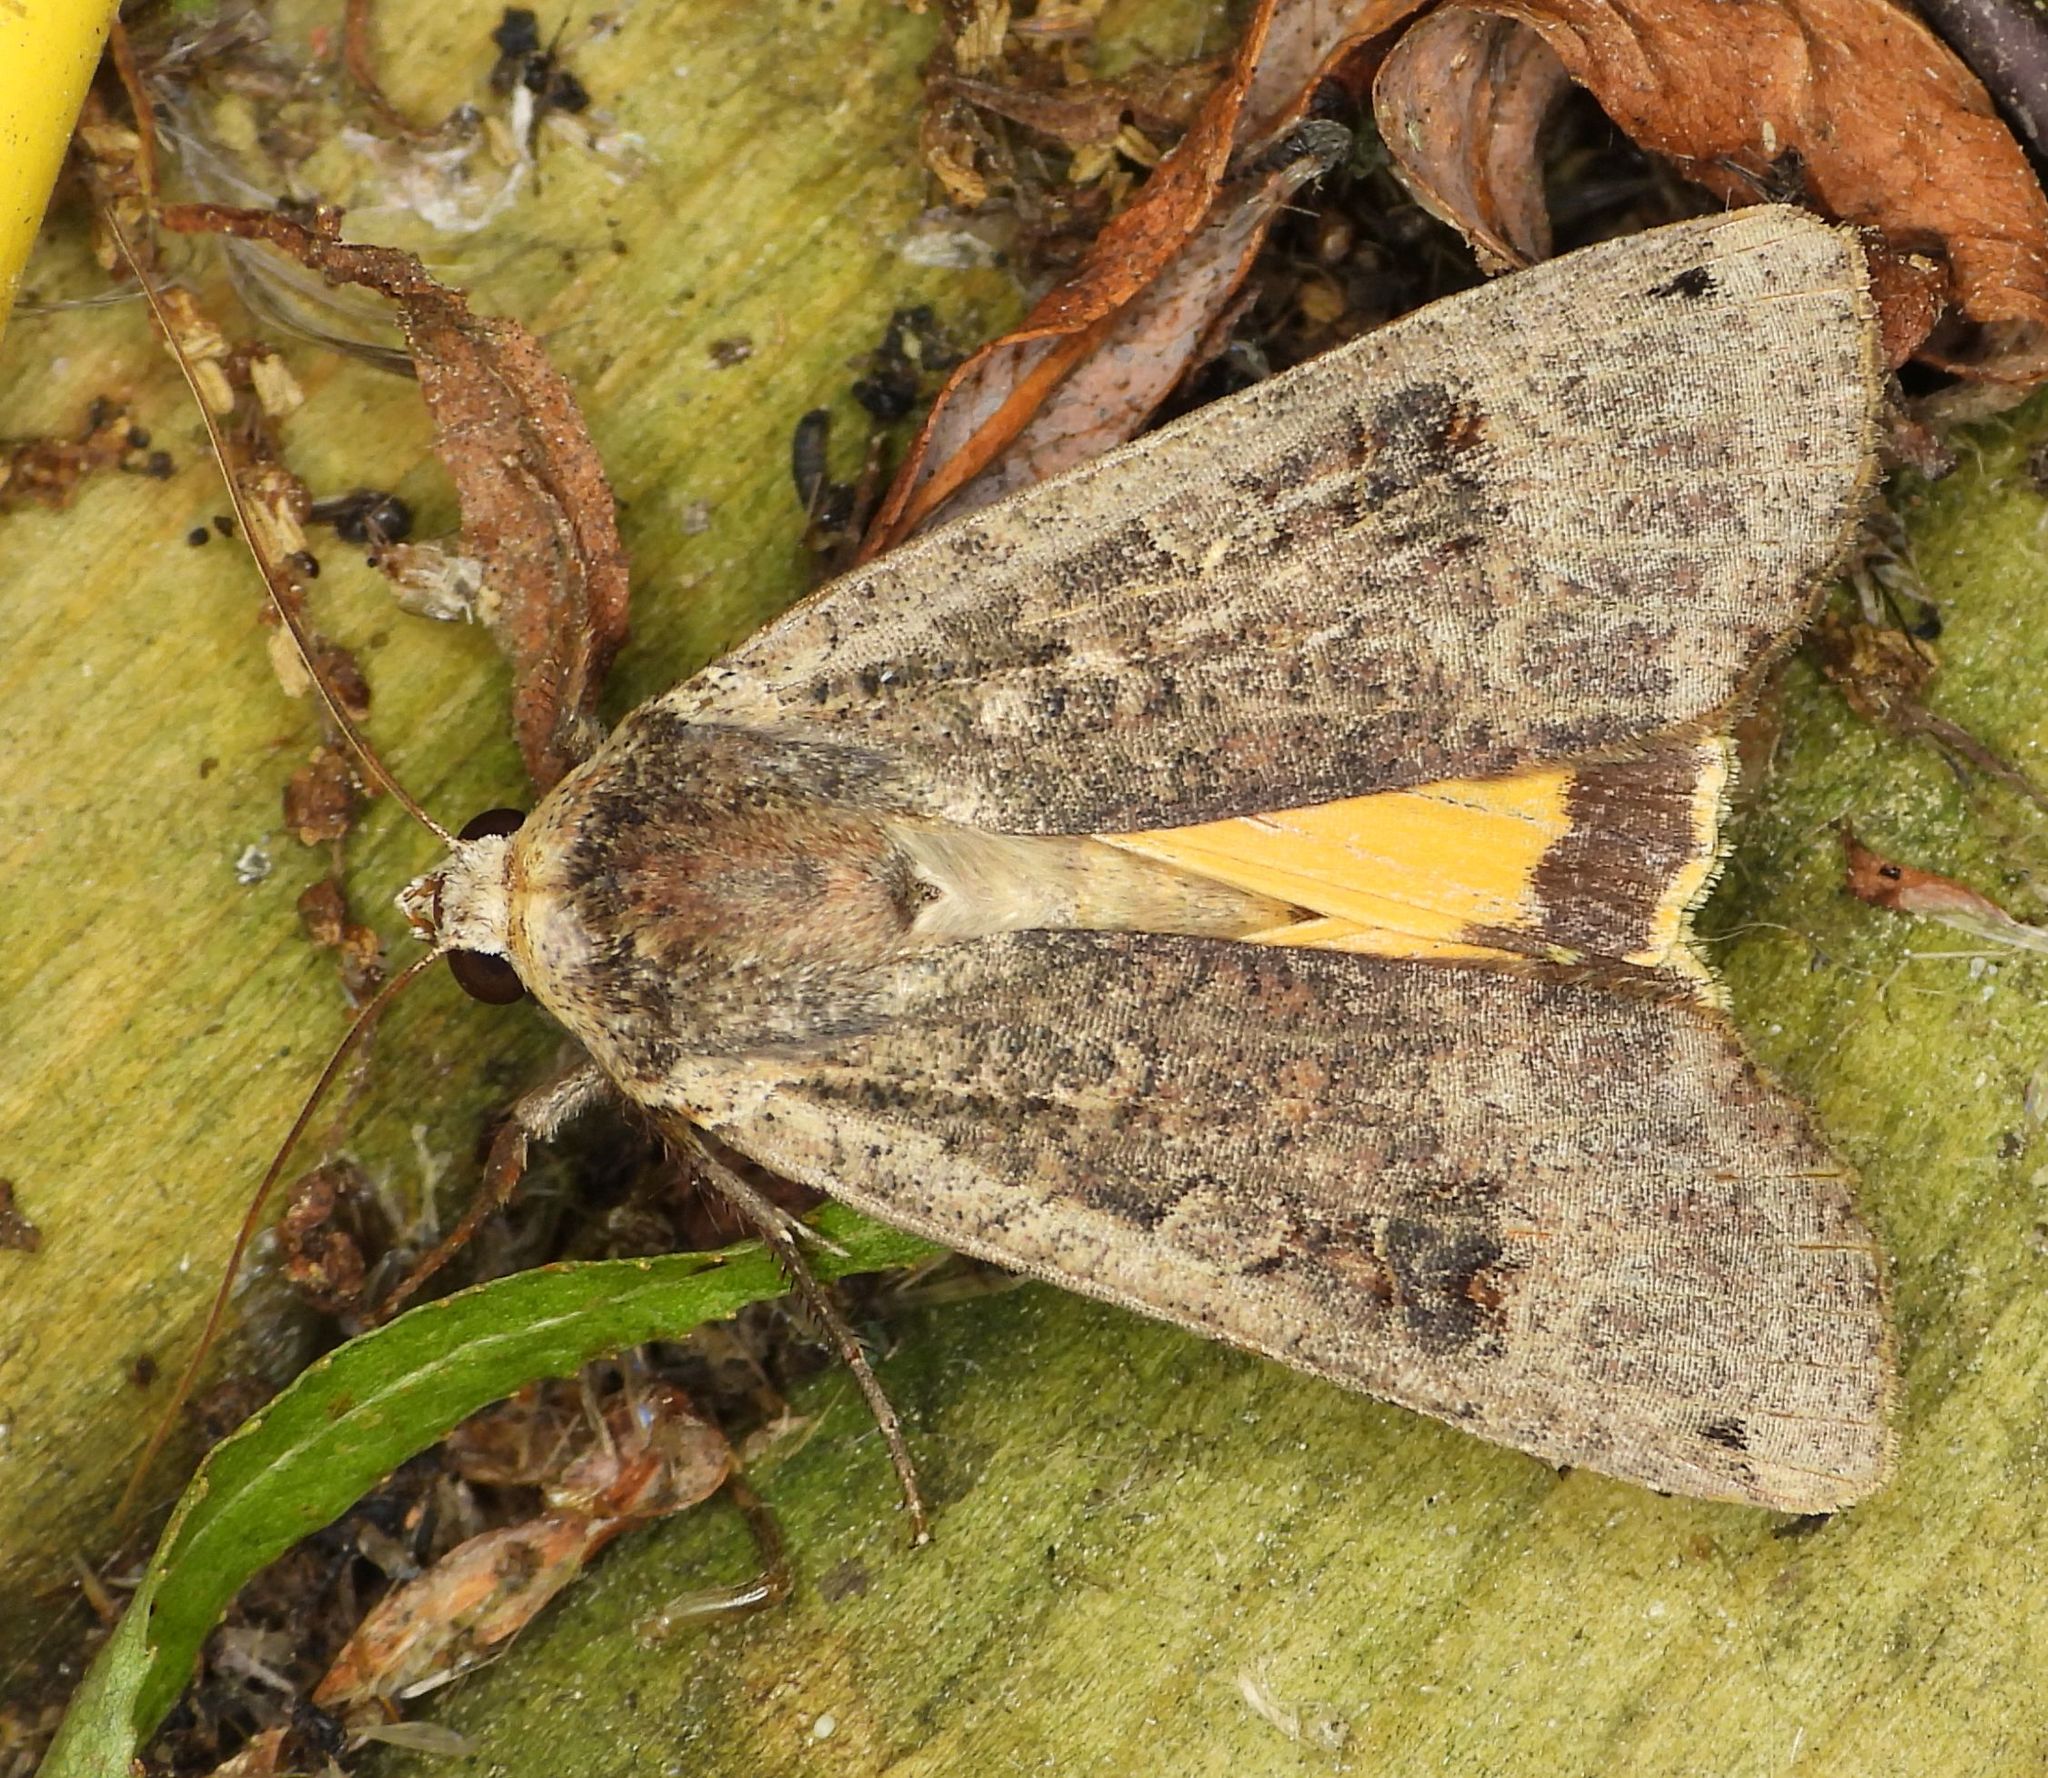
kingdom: Animalia
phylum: Arthropoda
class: Insecta
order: Lepidoptera
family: Noctuidae
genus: Noctua
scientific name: Noctua pronuba
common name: Large yellow underwing
